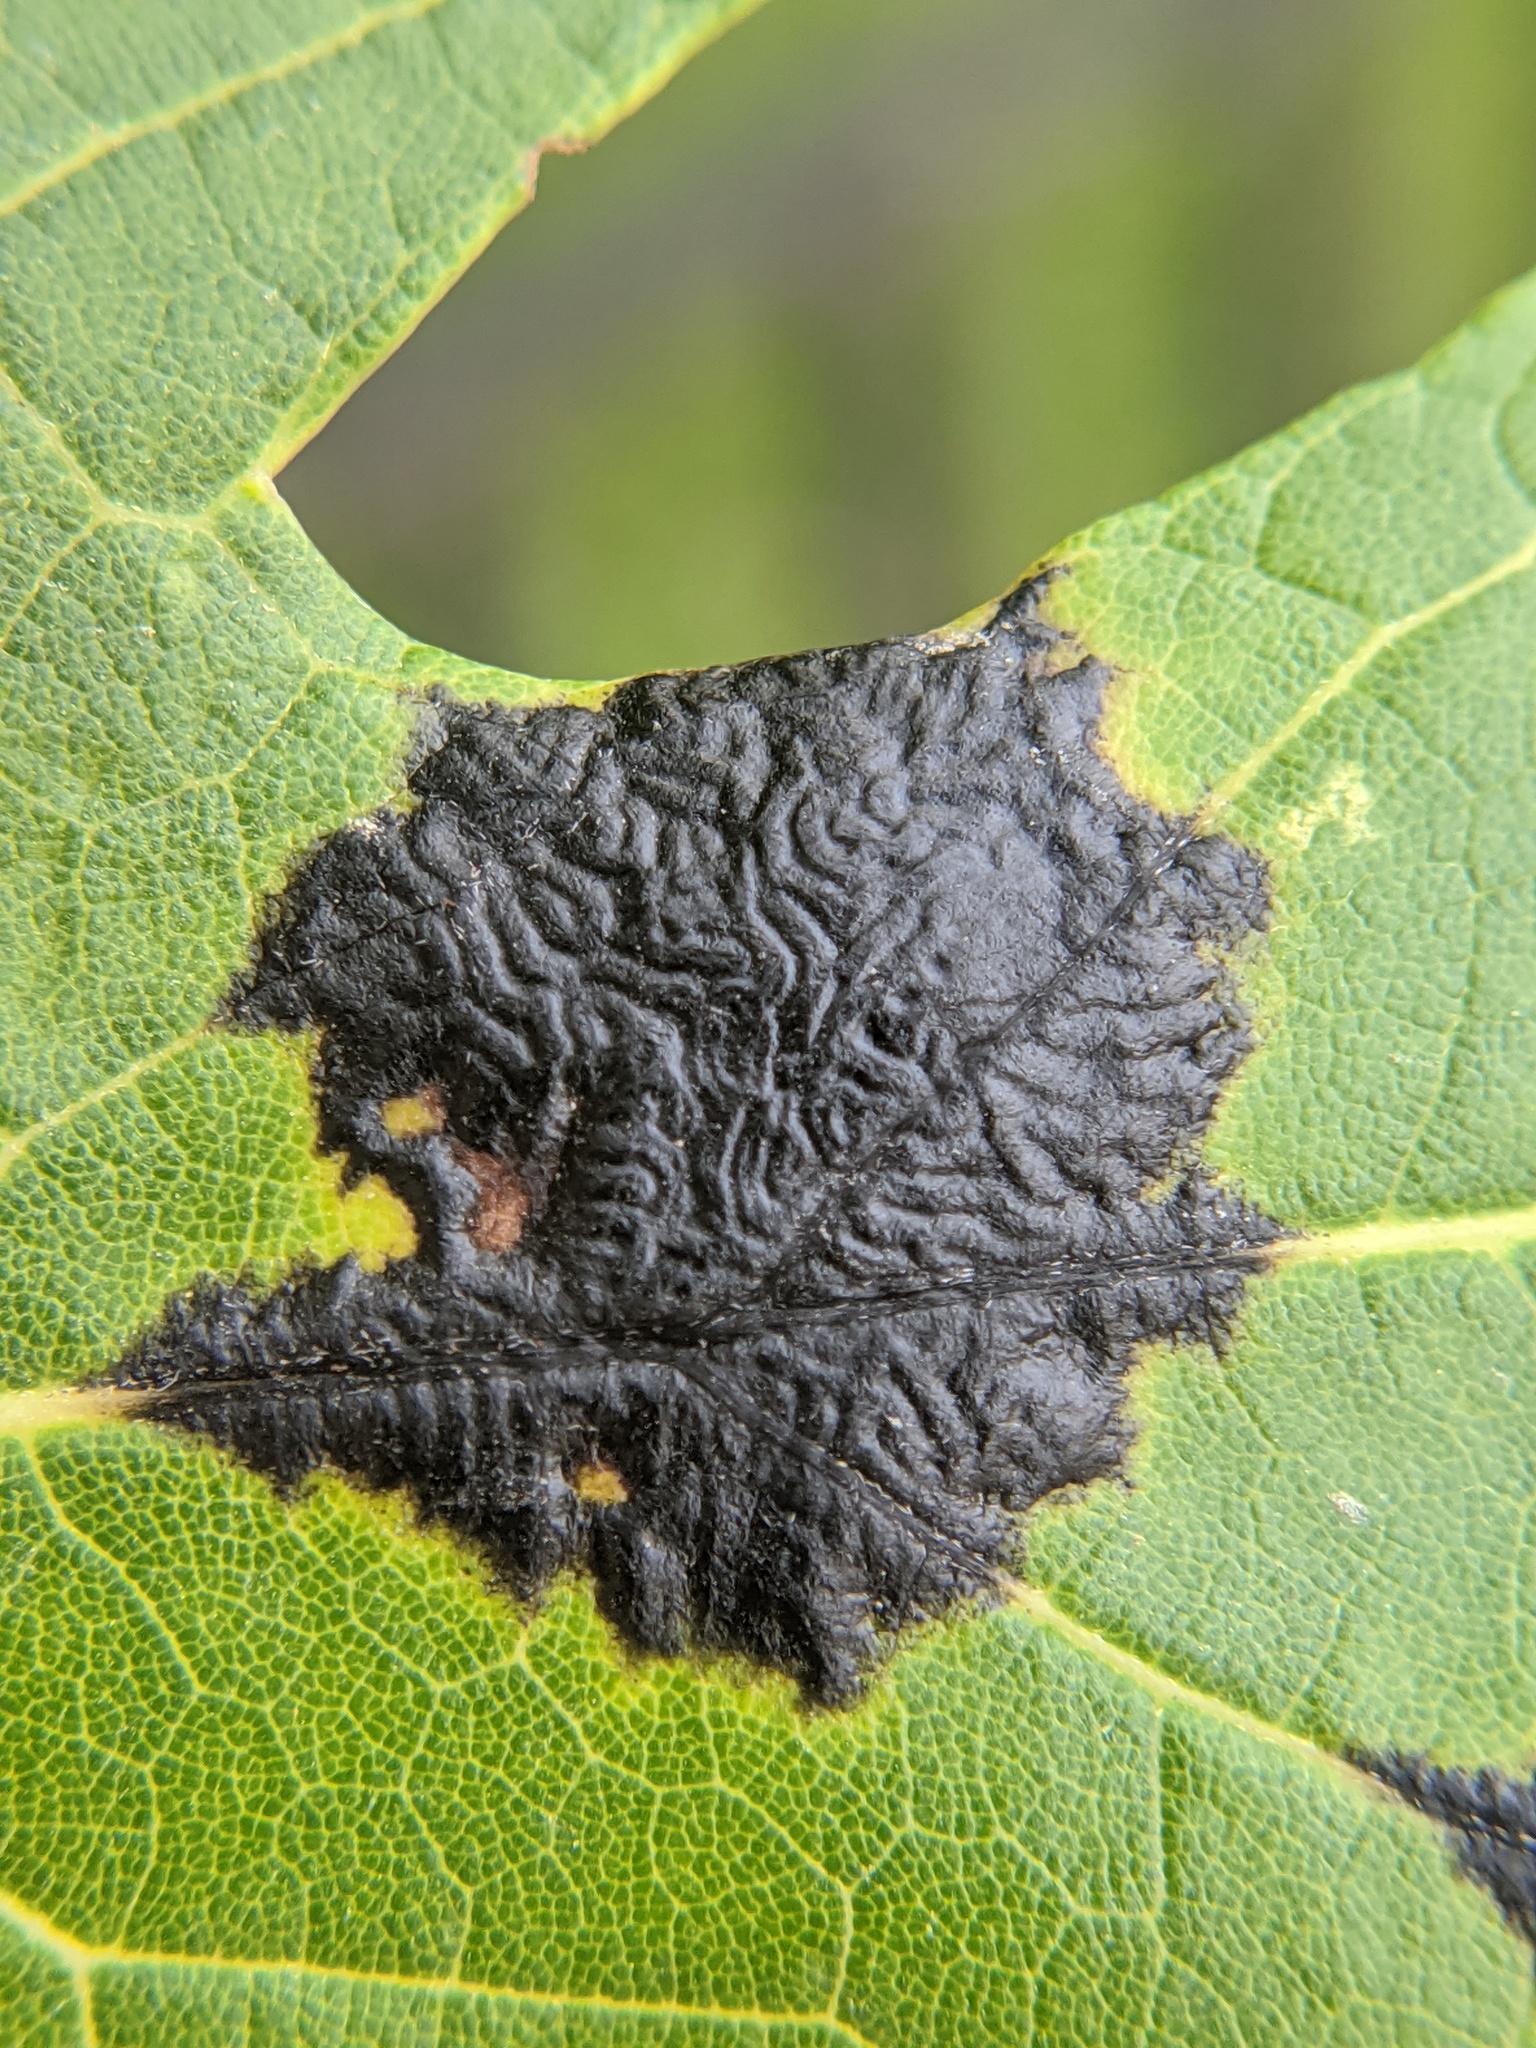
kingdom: Fungi
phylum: Ascomycota
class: Leotiomycetes
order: Rhytismatales
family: Rhytismataceae
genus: Rhytisma
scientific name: Rhytisma americanum
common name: American tar spot
